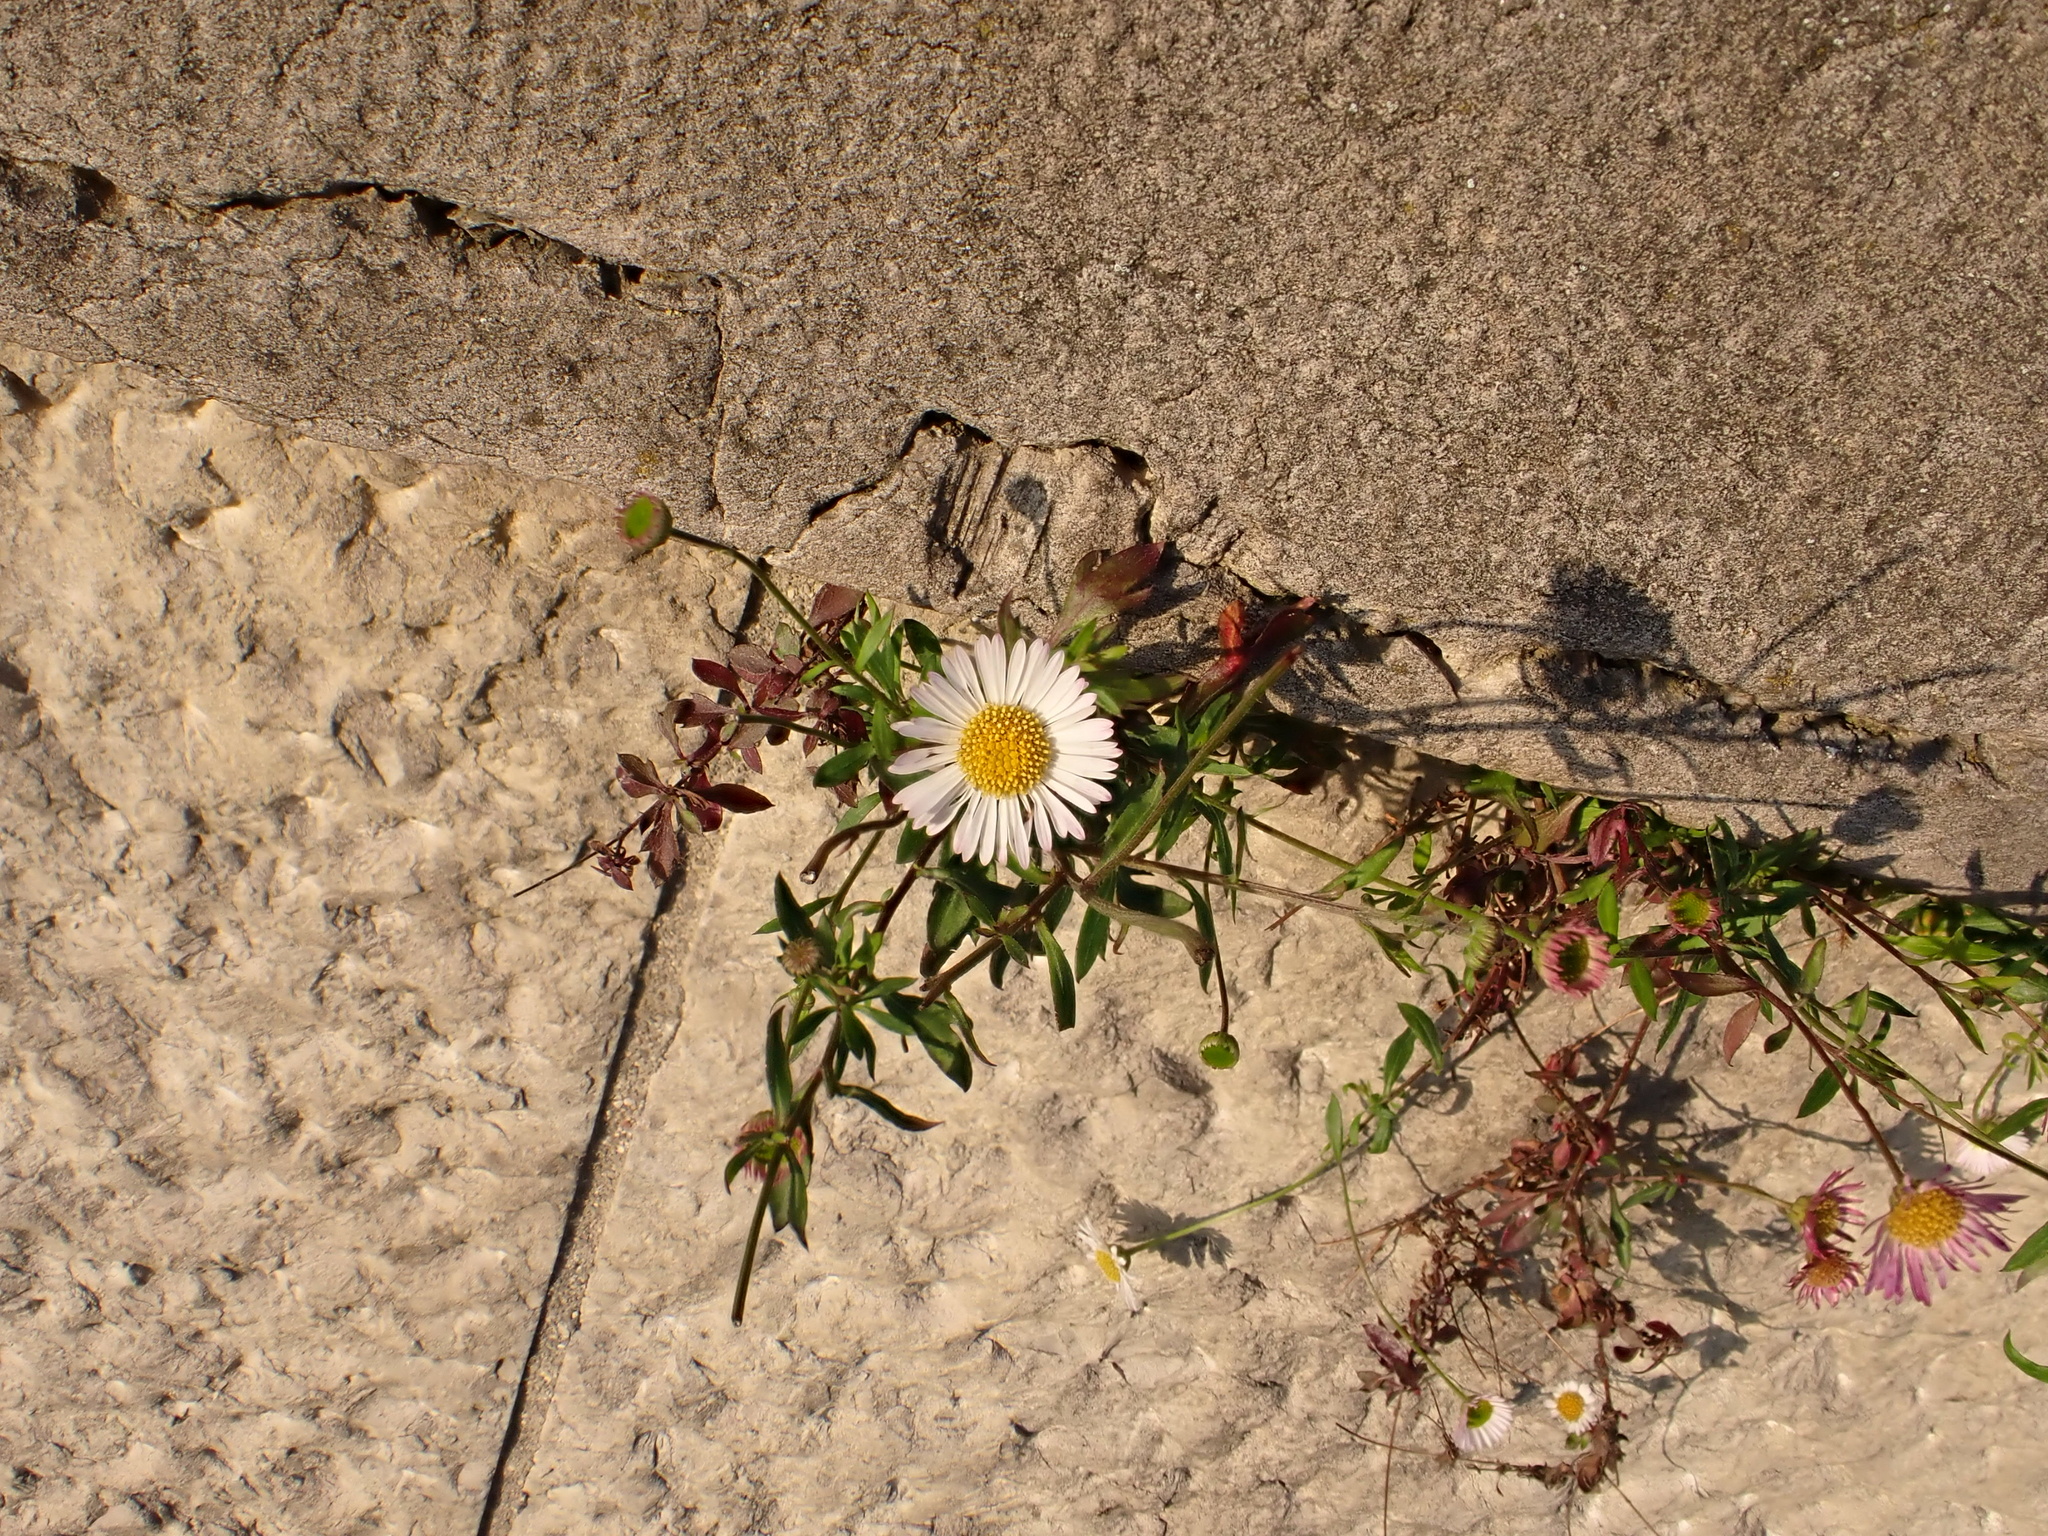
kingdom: Plantae
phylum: Tracheophyta
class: Magnoliopsida
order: Asterales
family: Asteraceae
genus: Erigeron
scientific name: Erigeron karvinskianus
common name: Mexican fleabane
